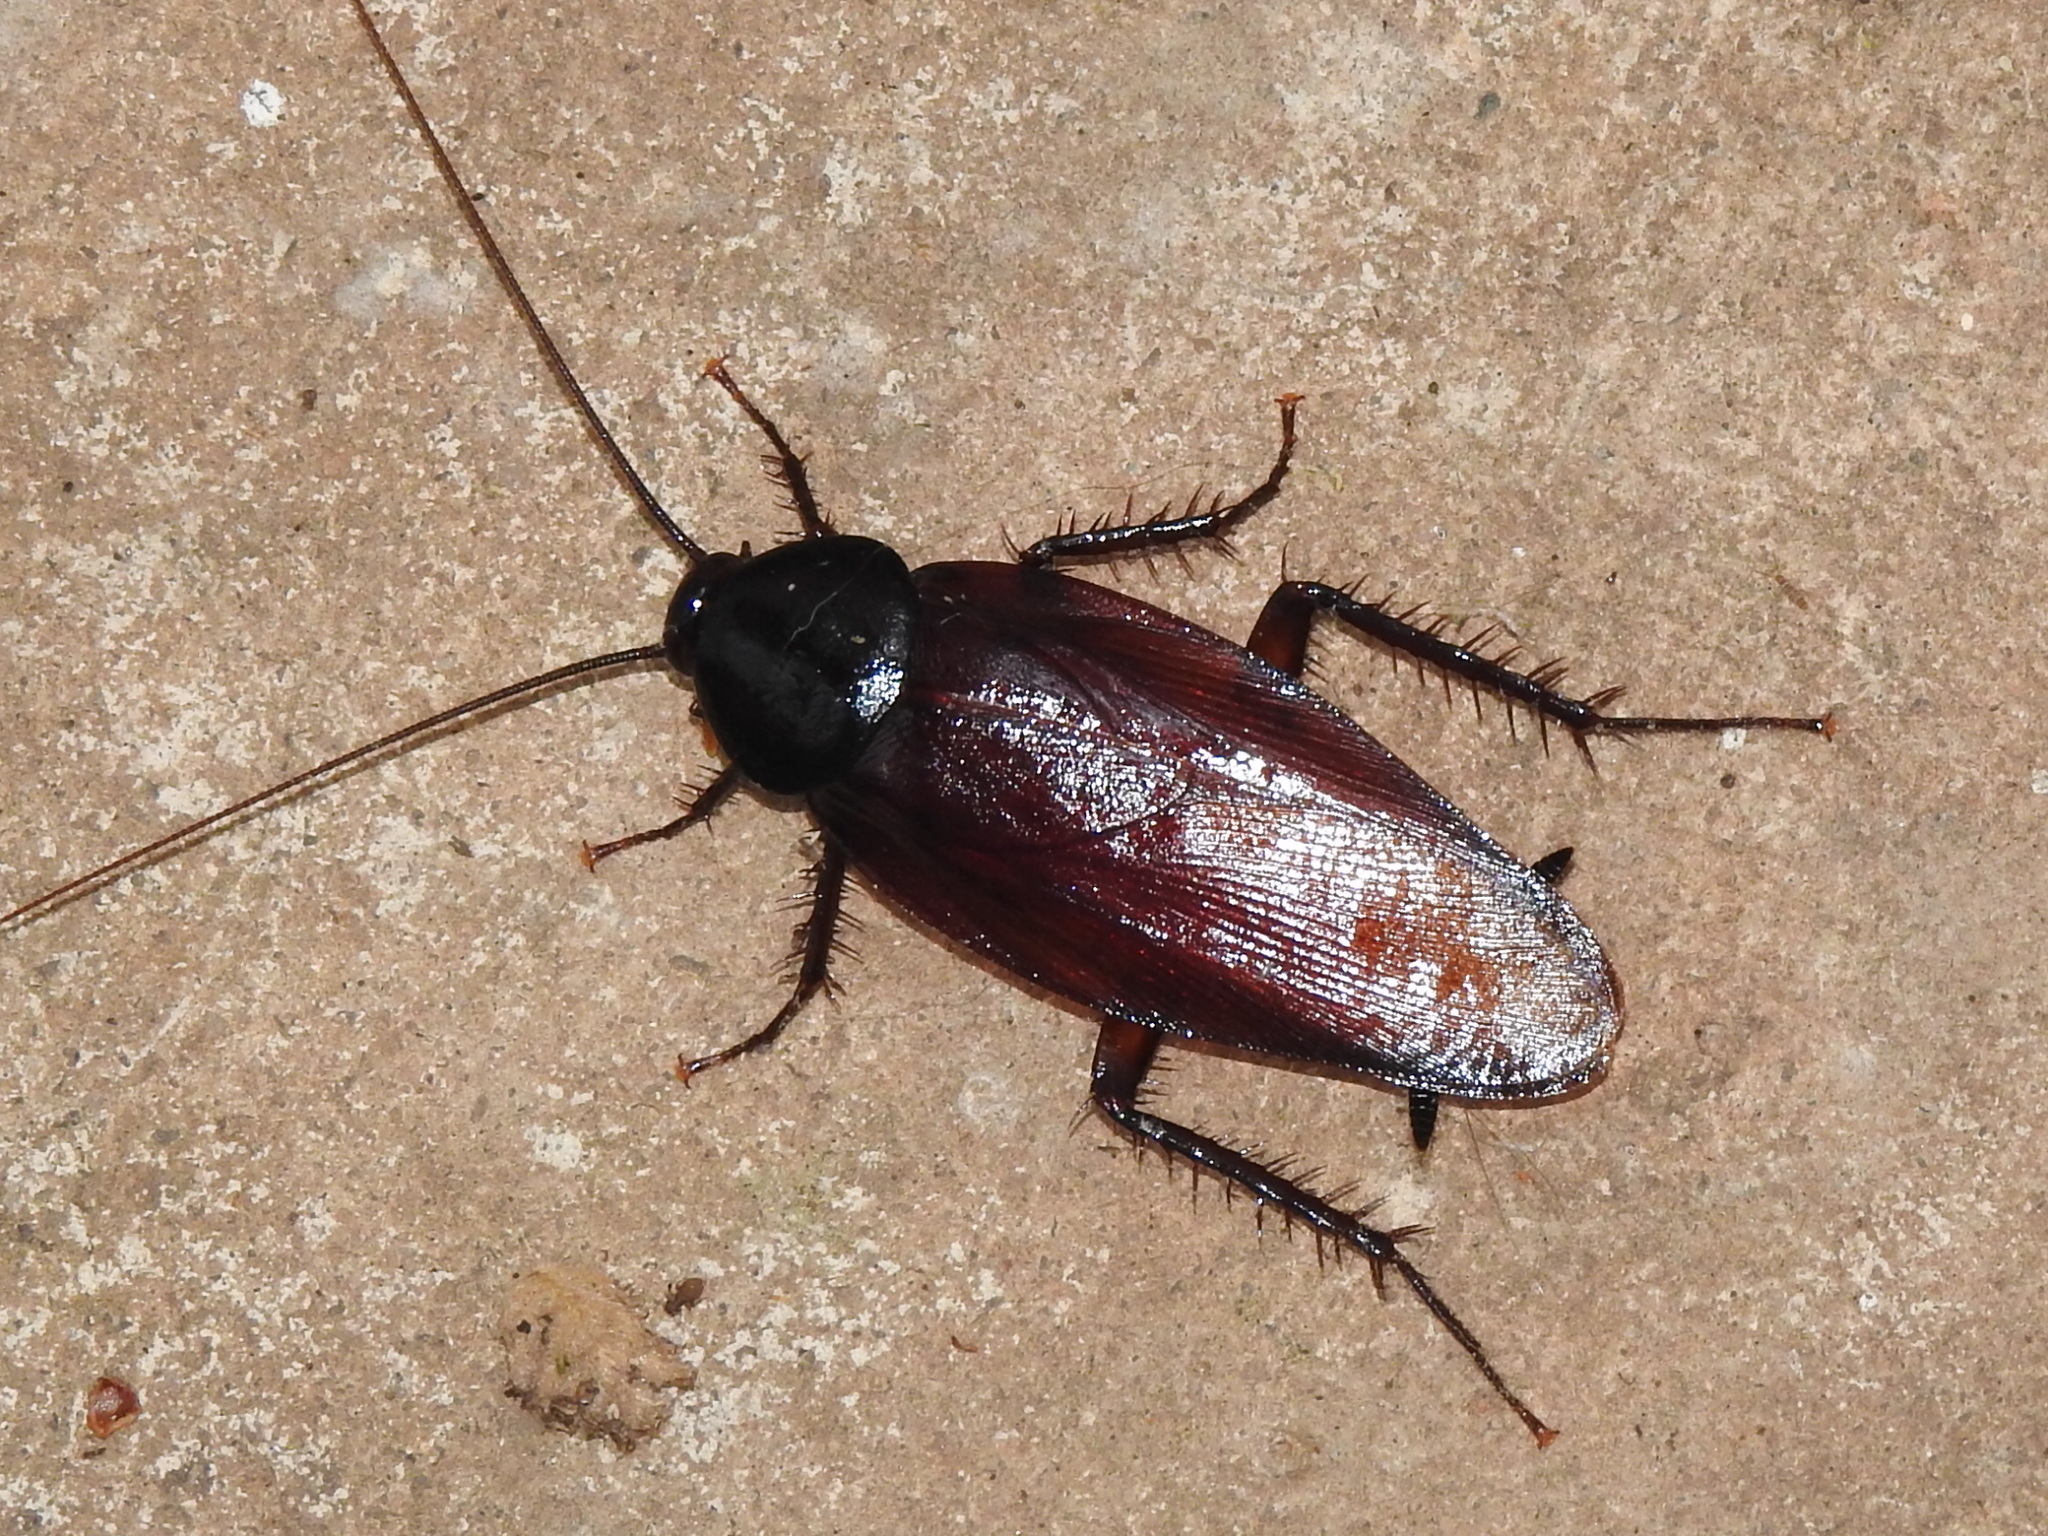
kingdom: Animalia
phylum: Arthropoda
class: Insecta
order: Blattodea
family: Blattidae
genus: Periplaneta
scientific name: Periplaneta fuliginosa
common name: Smokeybrown cockroad
